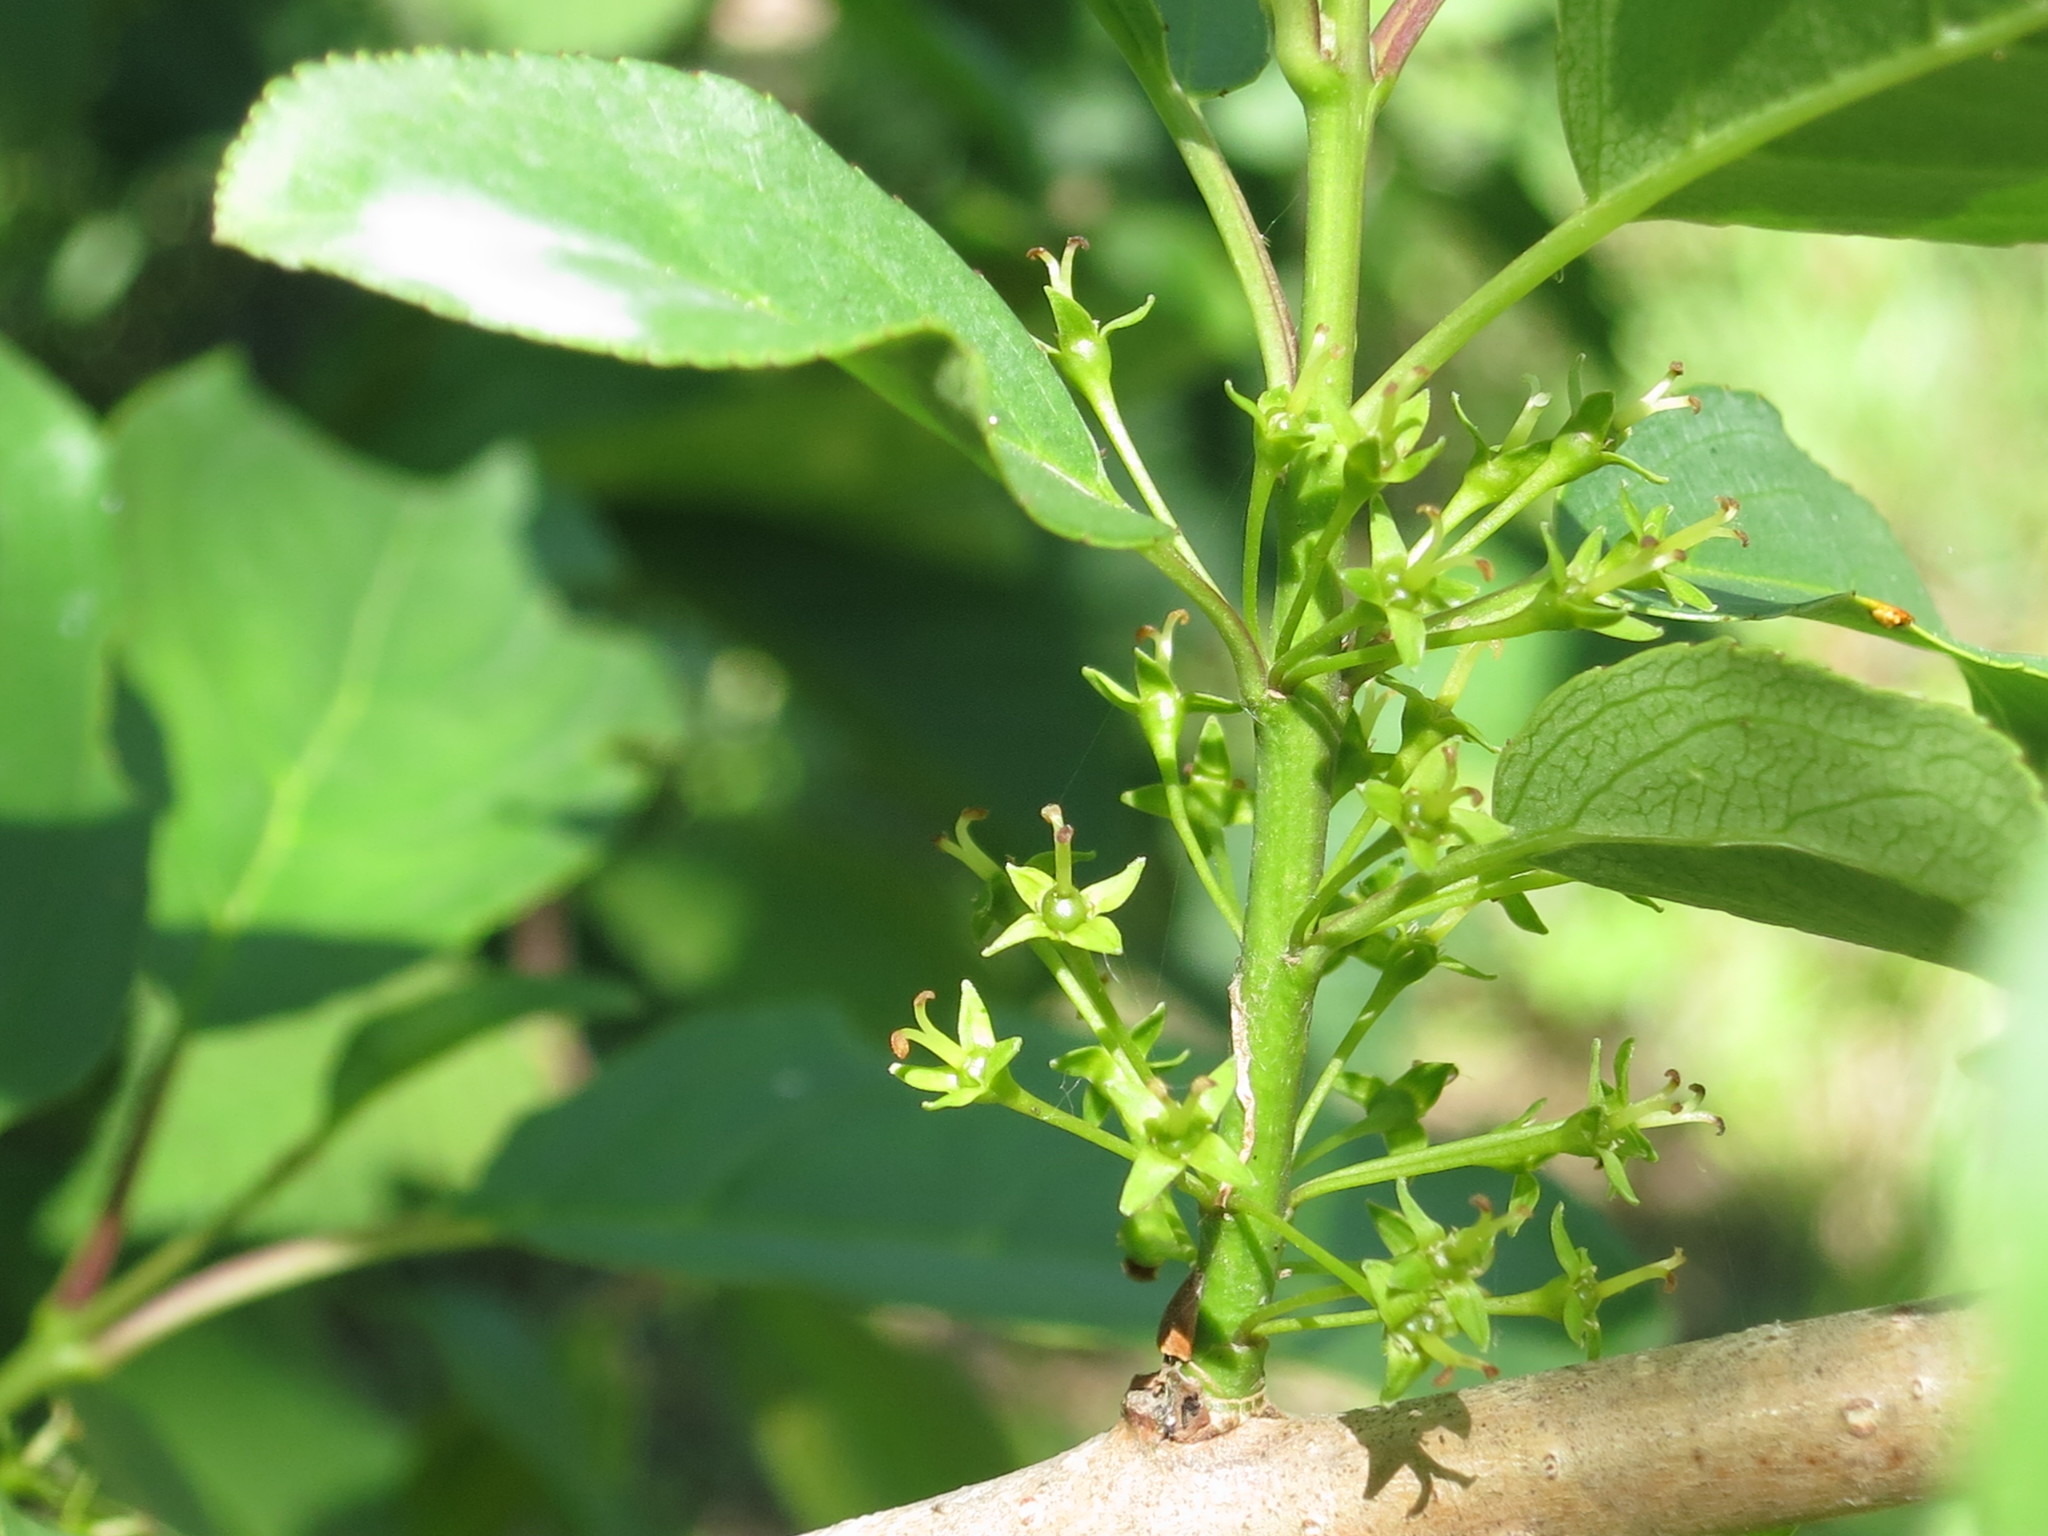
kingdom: Plantae
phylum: Tracheophyta
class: Magnoliopsida
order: Rosales
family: Rhamnaceae
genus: Rhamnus
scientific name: Rhamnus ussuriensis
